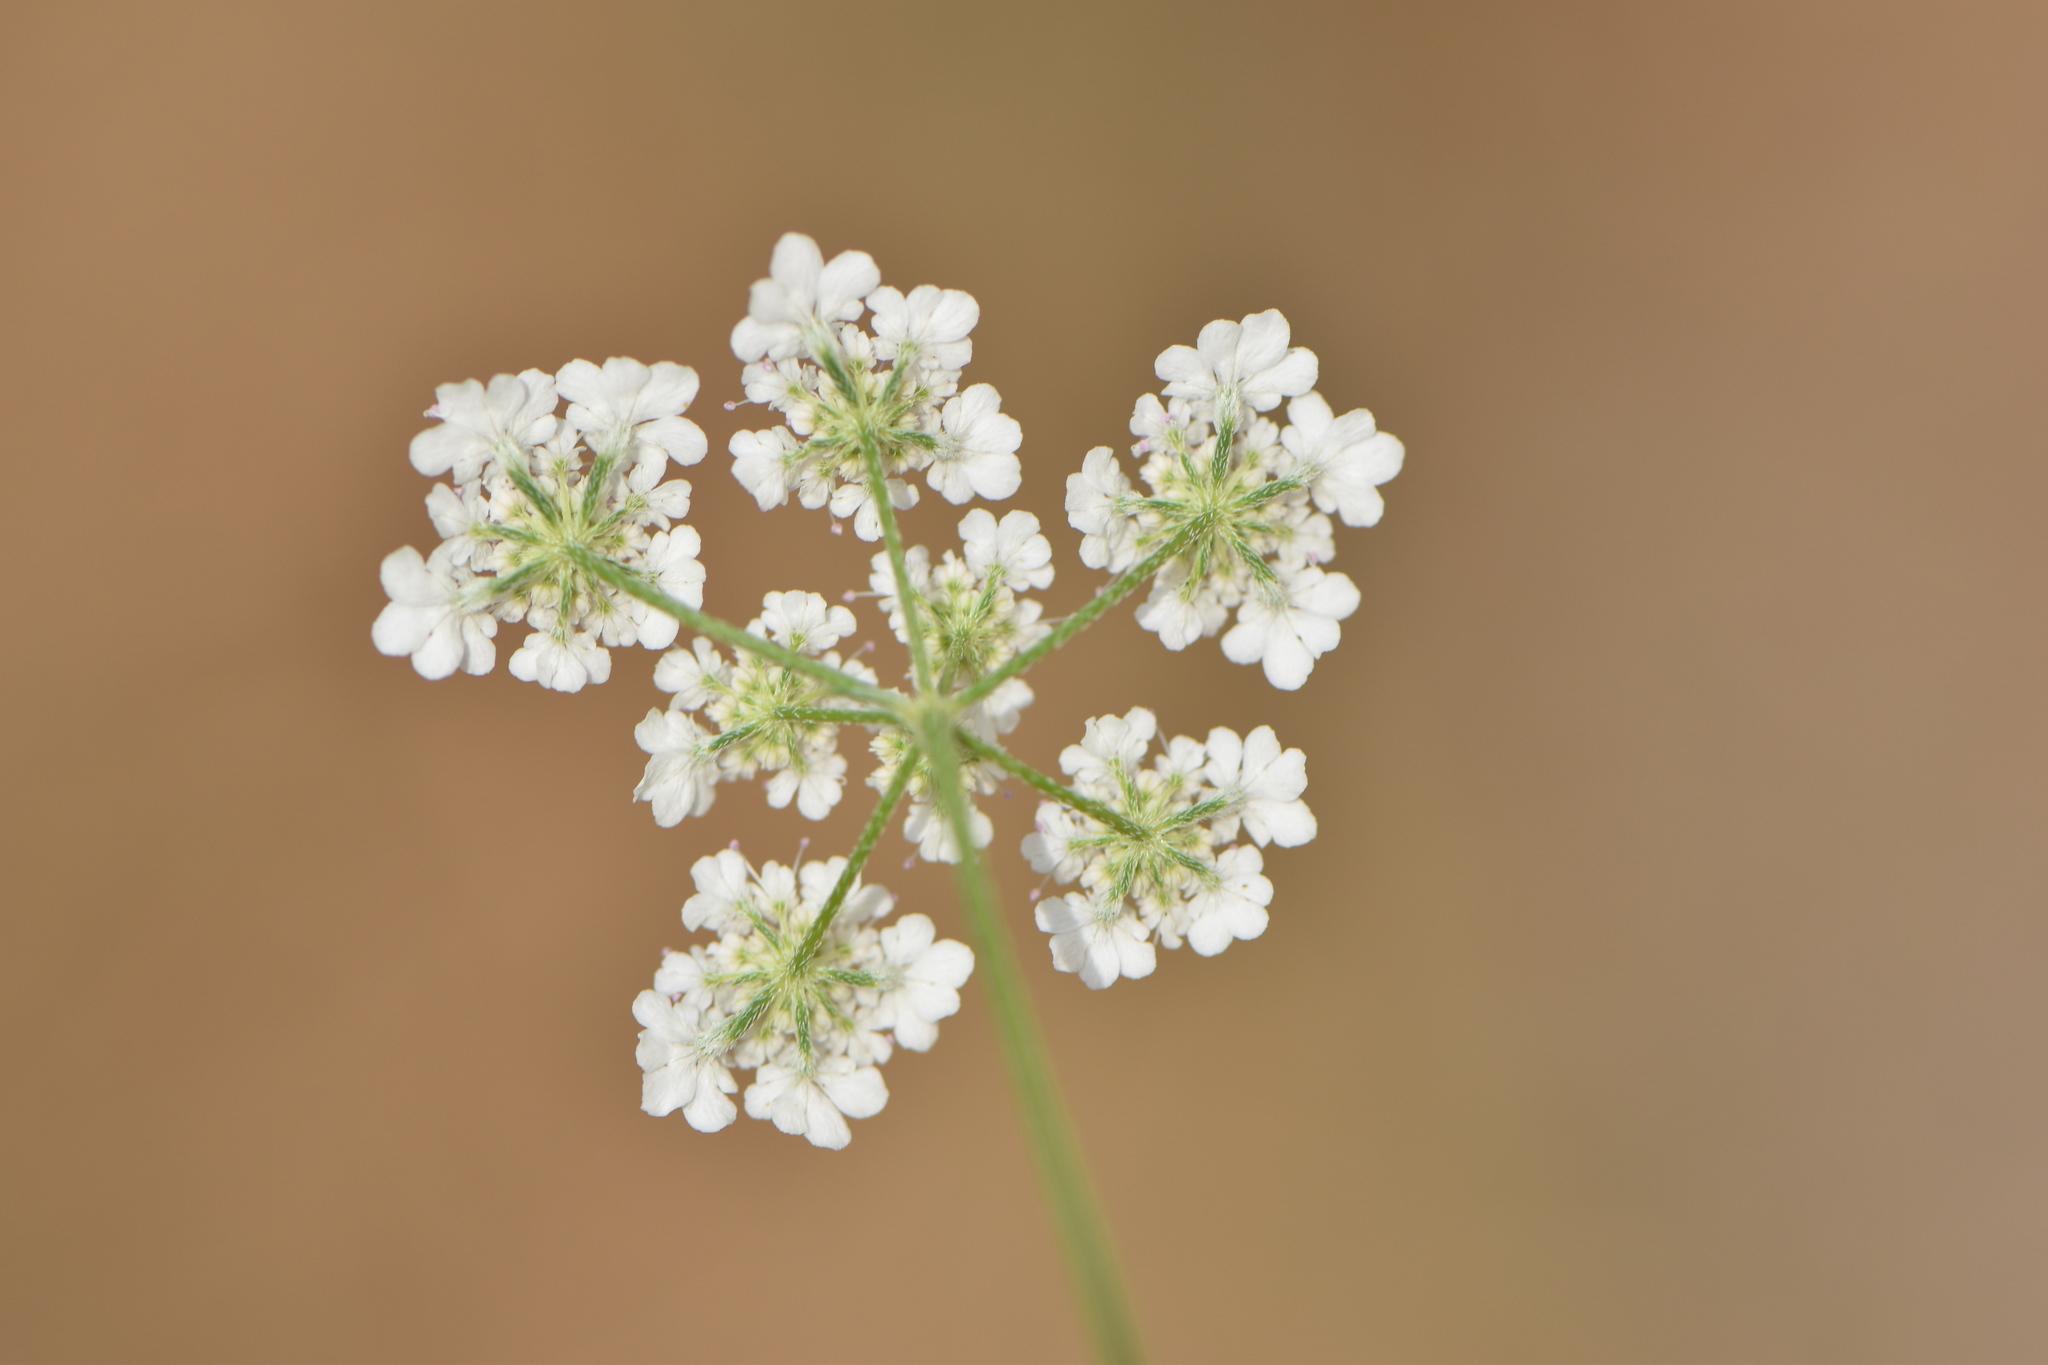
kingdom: Plantae
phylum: Tracheophyta
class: Magnoliopsida
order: Apiales
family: Apiaceae
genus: Torilis
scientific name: Torilis arvensis
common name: Spreading hedge-parsley
